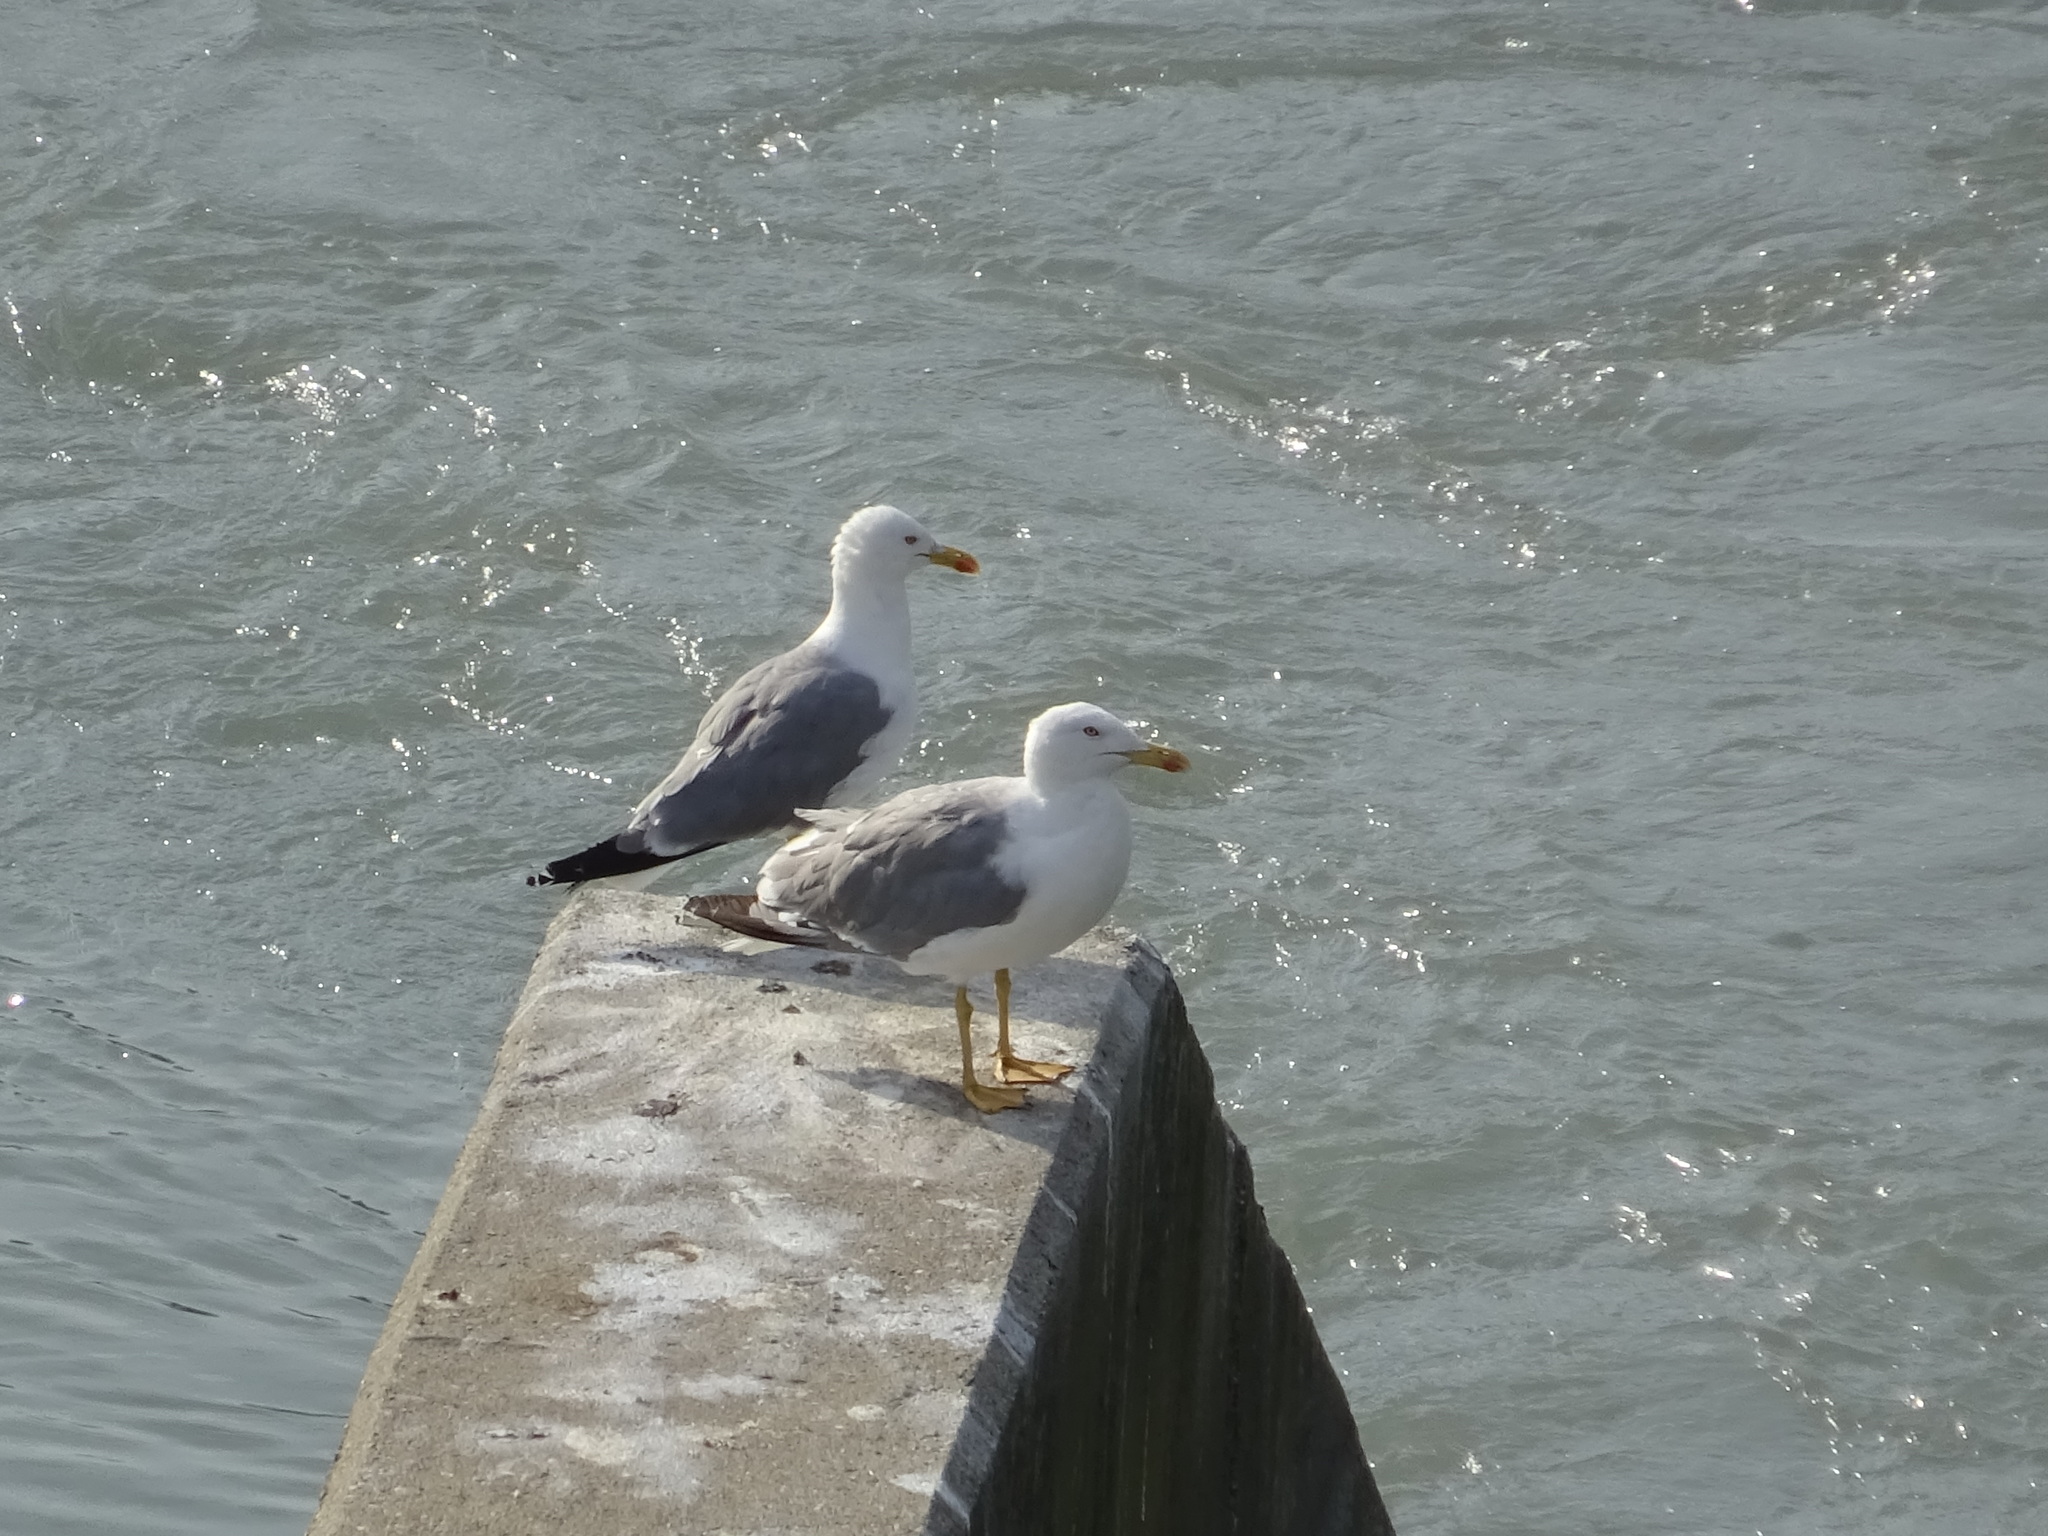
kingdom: Animalia
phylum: Chordata
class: Aves
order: Charadriiformes
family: Laridae
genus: Larus
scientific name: Larus michahellis
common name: Yellow-legged gull
